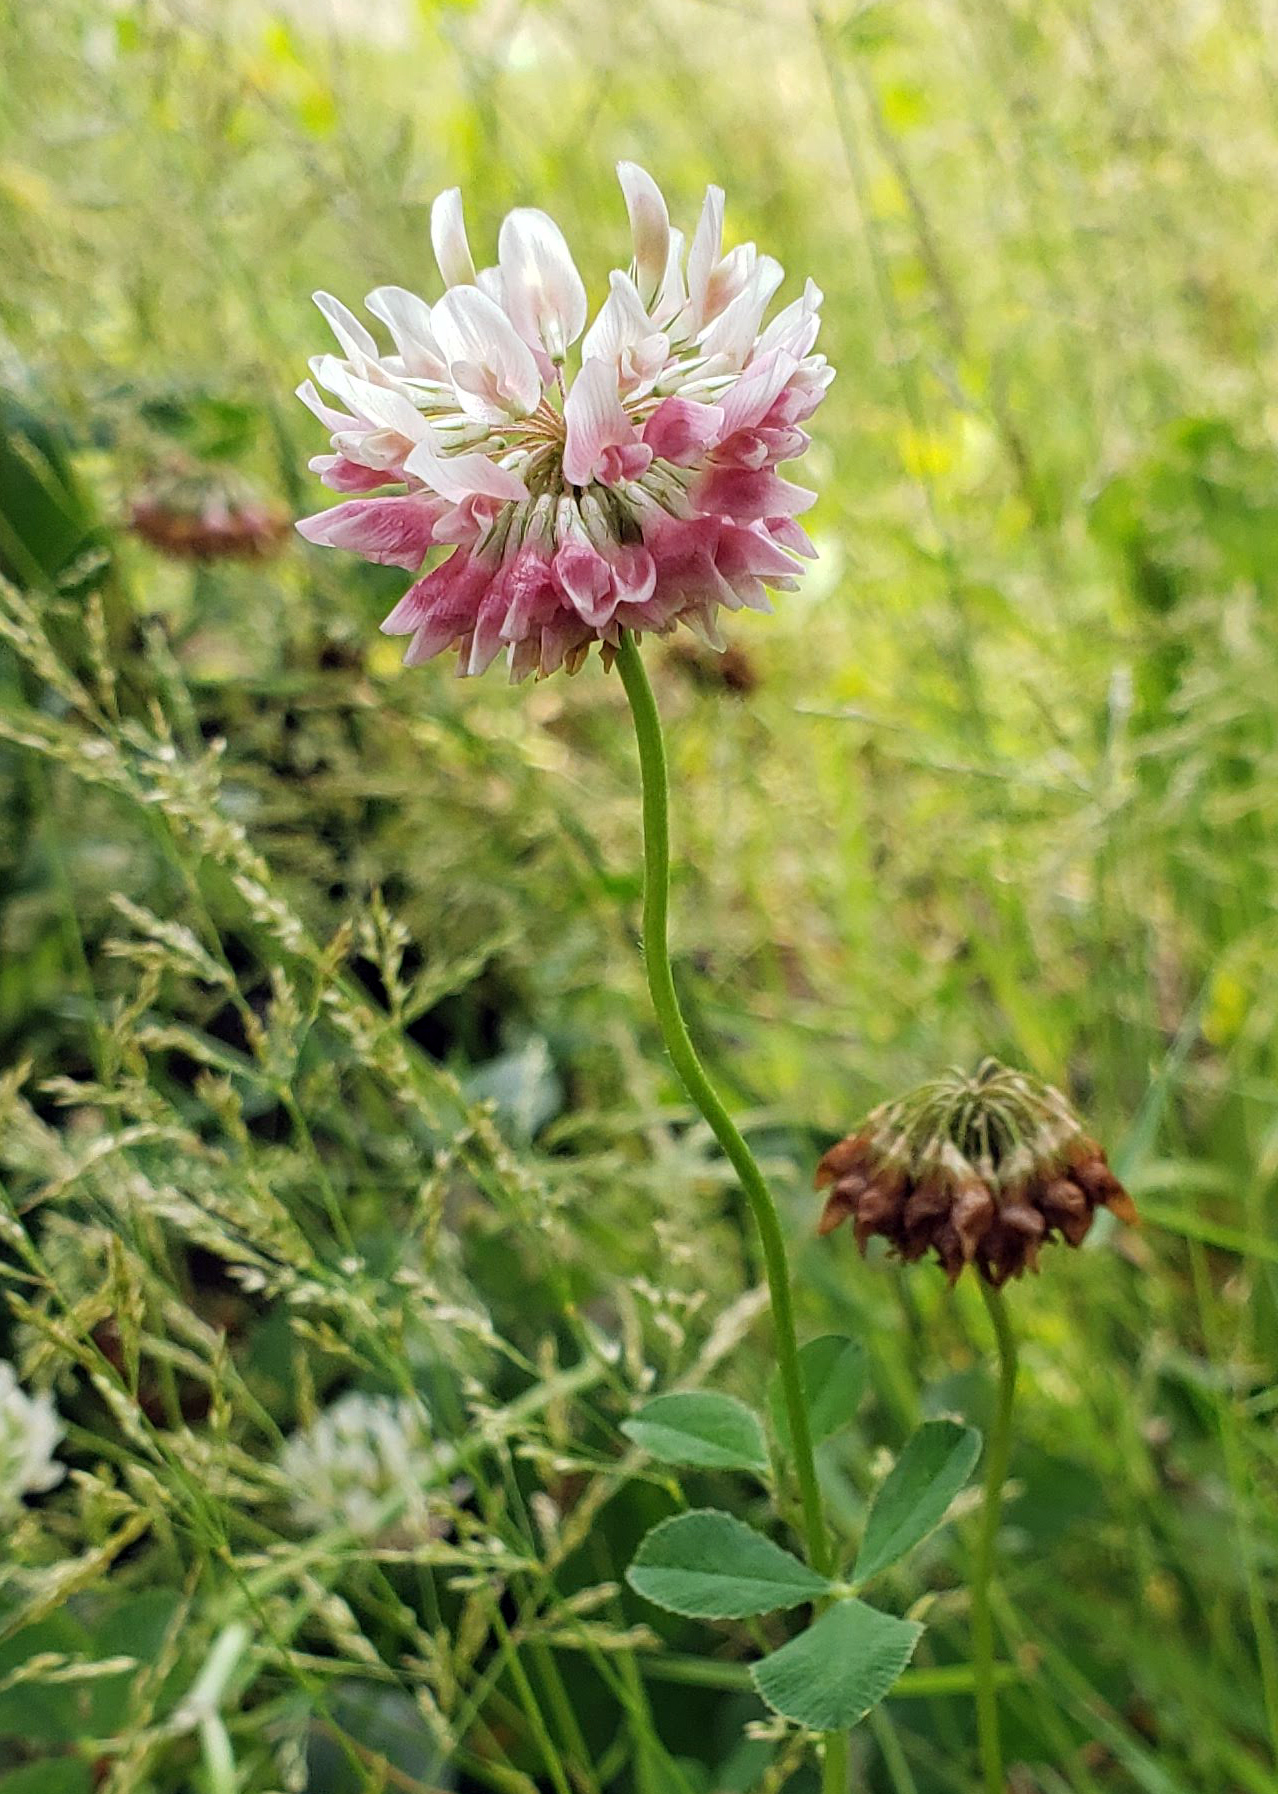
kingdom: Plantae
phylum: Tracheophyta
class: Magnoliopsida
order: Fabales
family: Fabaceae
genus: Trifolium
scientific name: Trifolium hybridum
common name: Alsike clover
